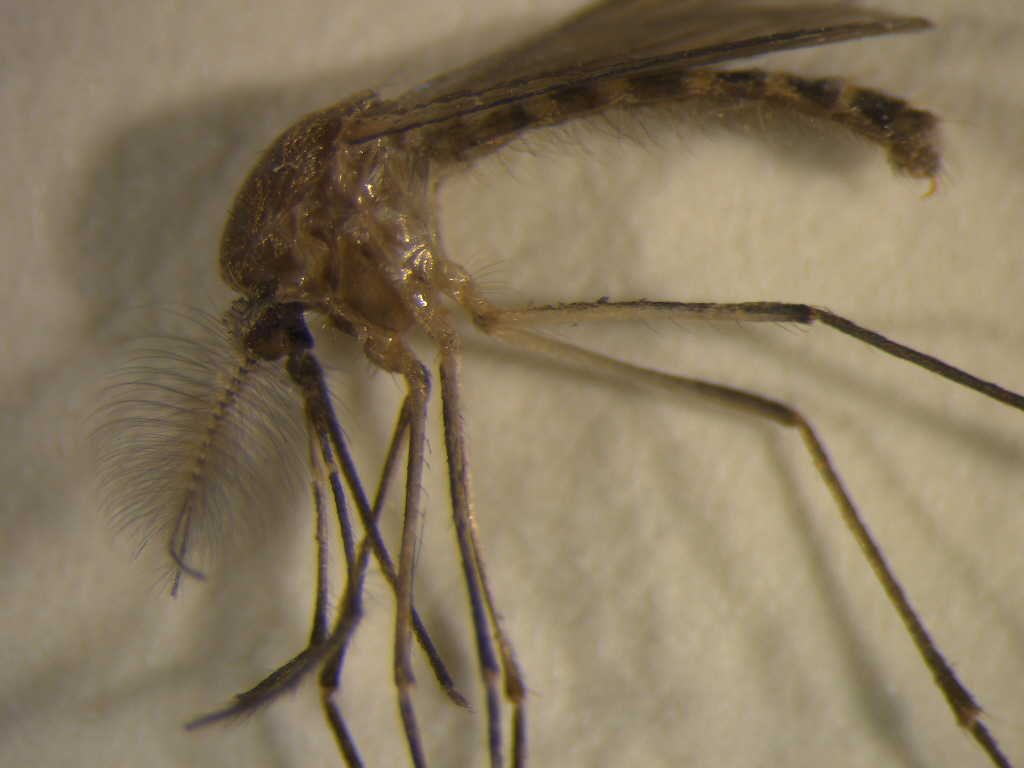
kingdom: Animalia
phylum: Arthropoda
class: Insecta
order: Diptera
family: Culicidae
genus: Culex
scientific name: Culex quinquefasciatus
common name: Southern house mosquito
